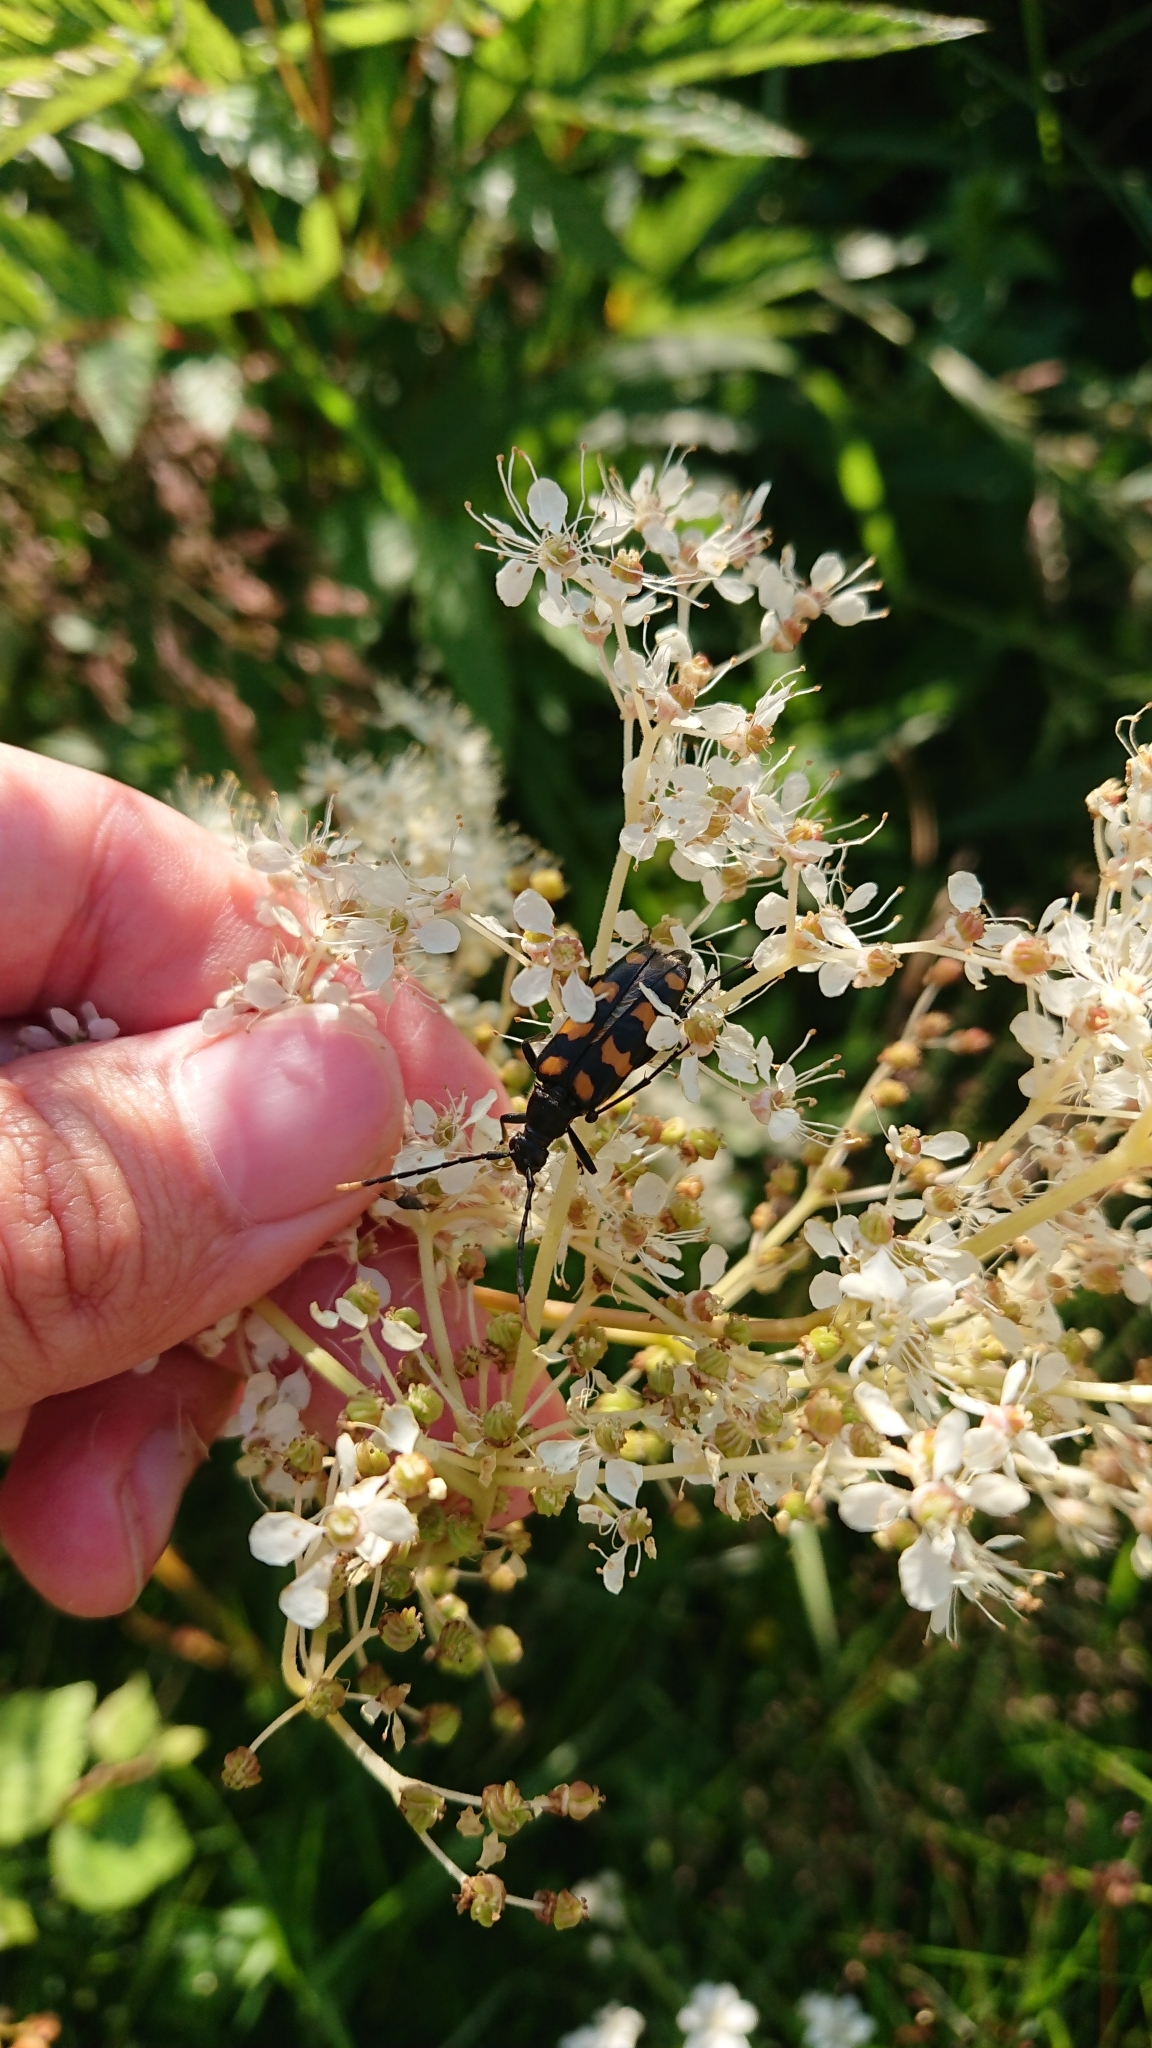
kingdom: Animalia
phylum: Arthropoda
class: Insecta
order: Coleoptera
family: Cerambycidae
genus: Leptura
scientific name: Leptura quadrifasciata
